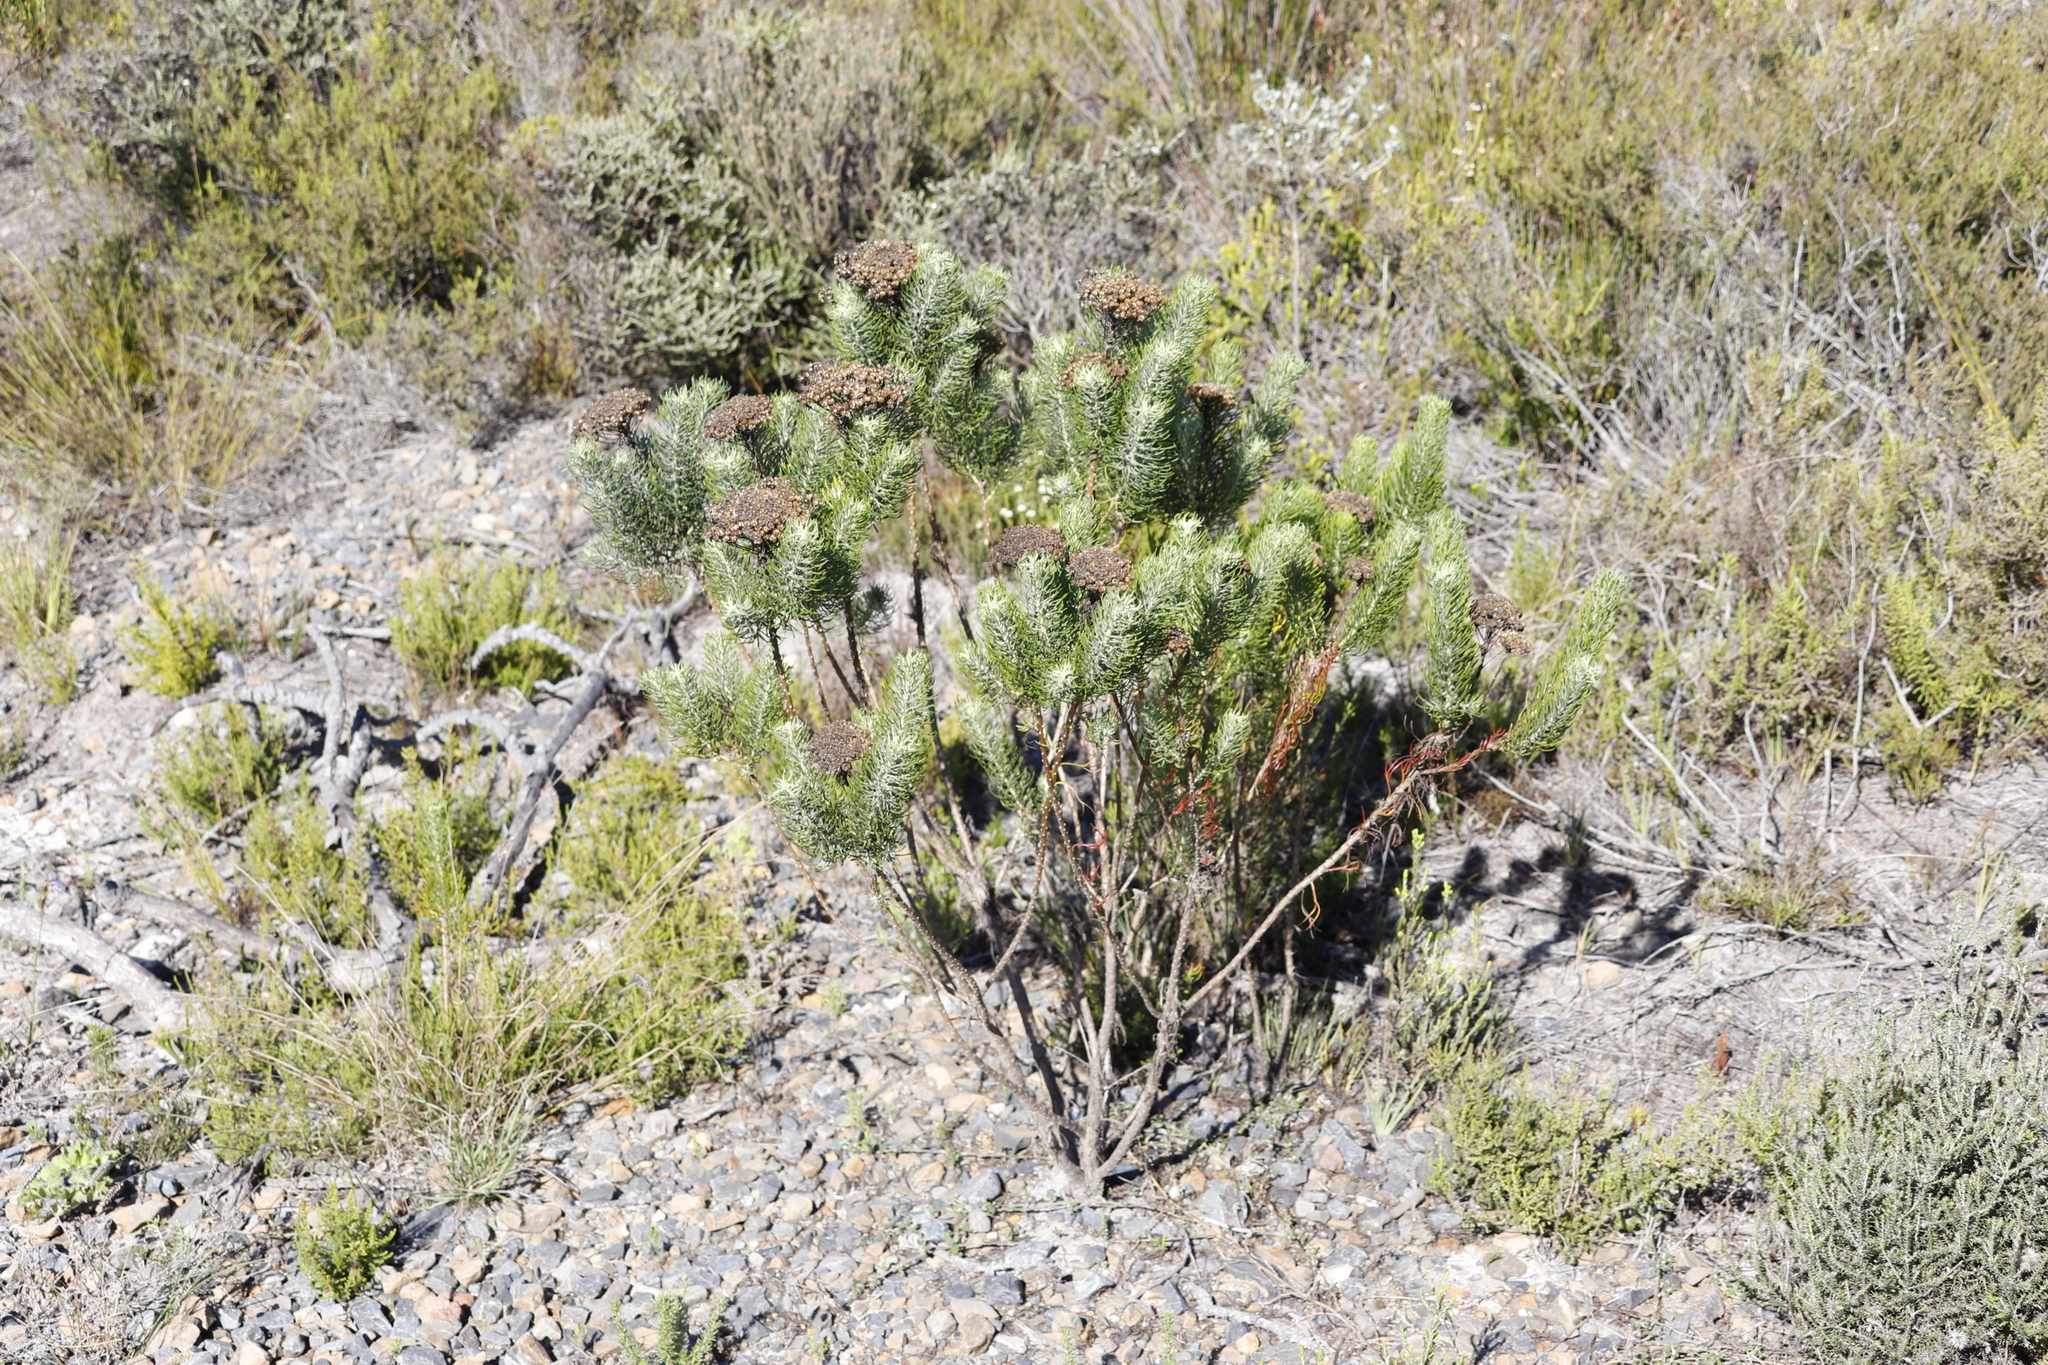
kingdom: Plantae
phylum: Tracheophyta
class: Magnoliopsida
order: Asterales
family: Asteraceae
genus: Athanasia
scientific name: Athanasia crithmifolia
